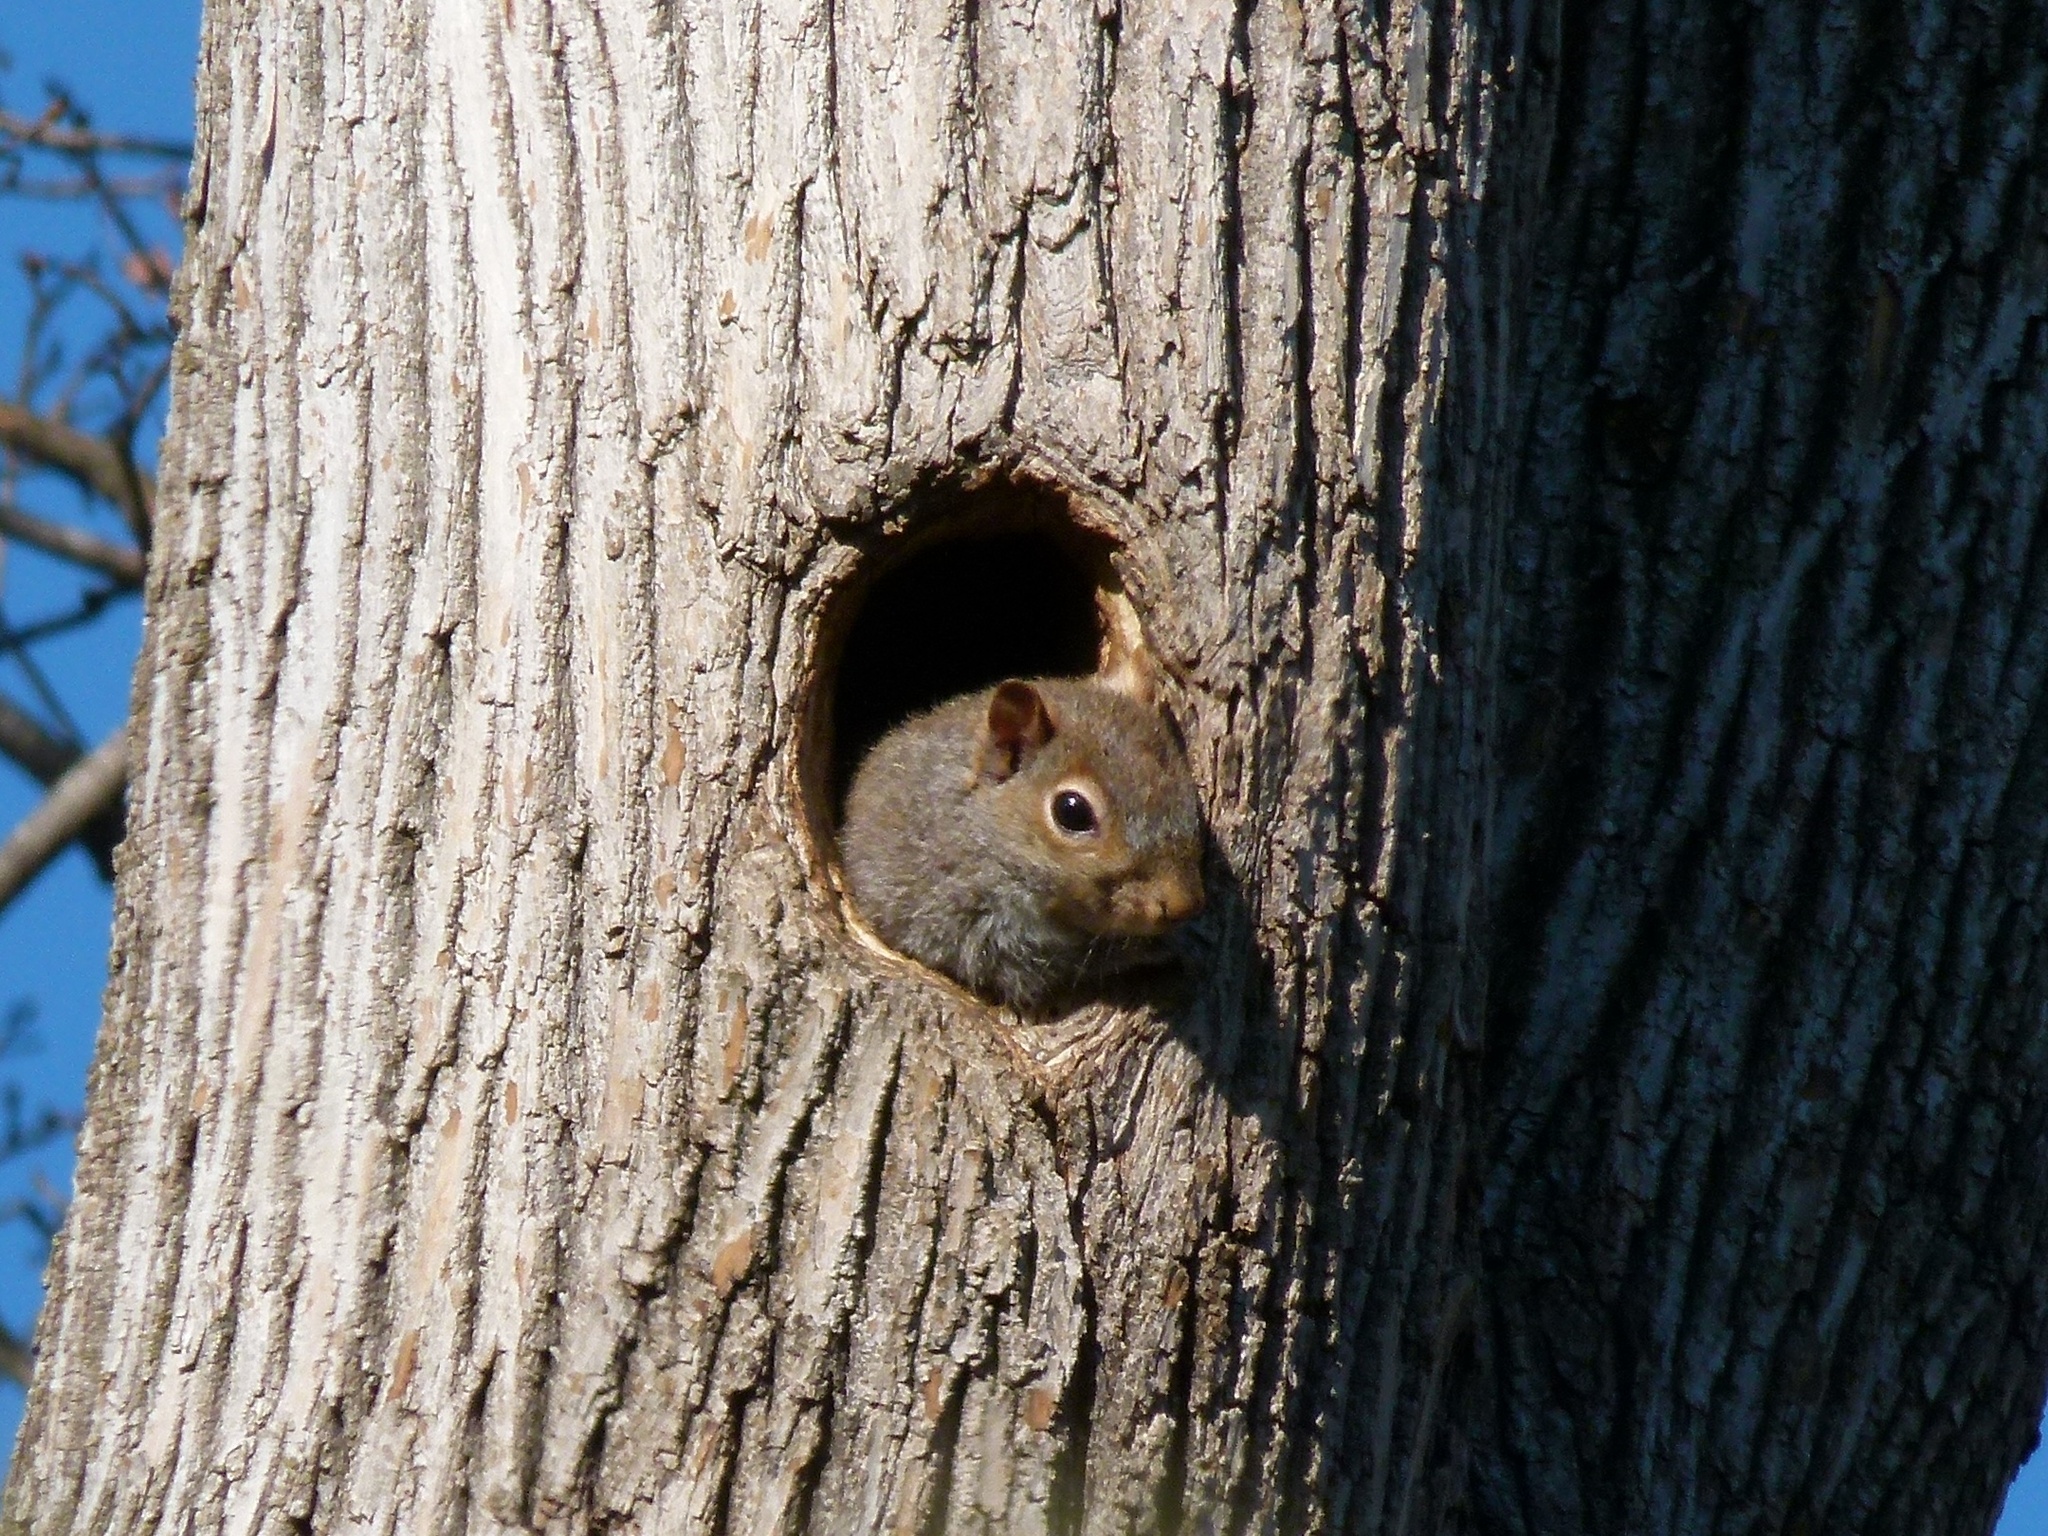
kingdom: Animalia
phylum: Chordata
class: Mammalia
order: Rodentia
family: Sciuridae
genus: Sciurus
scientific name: Sciurus carolinensis
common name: Eastern gray squirrel
